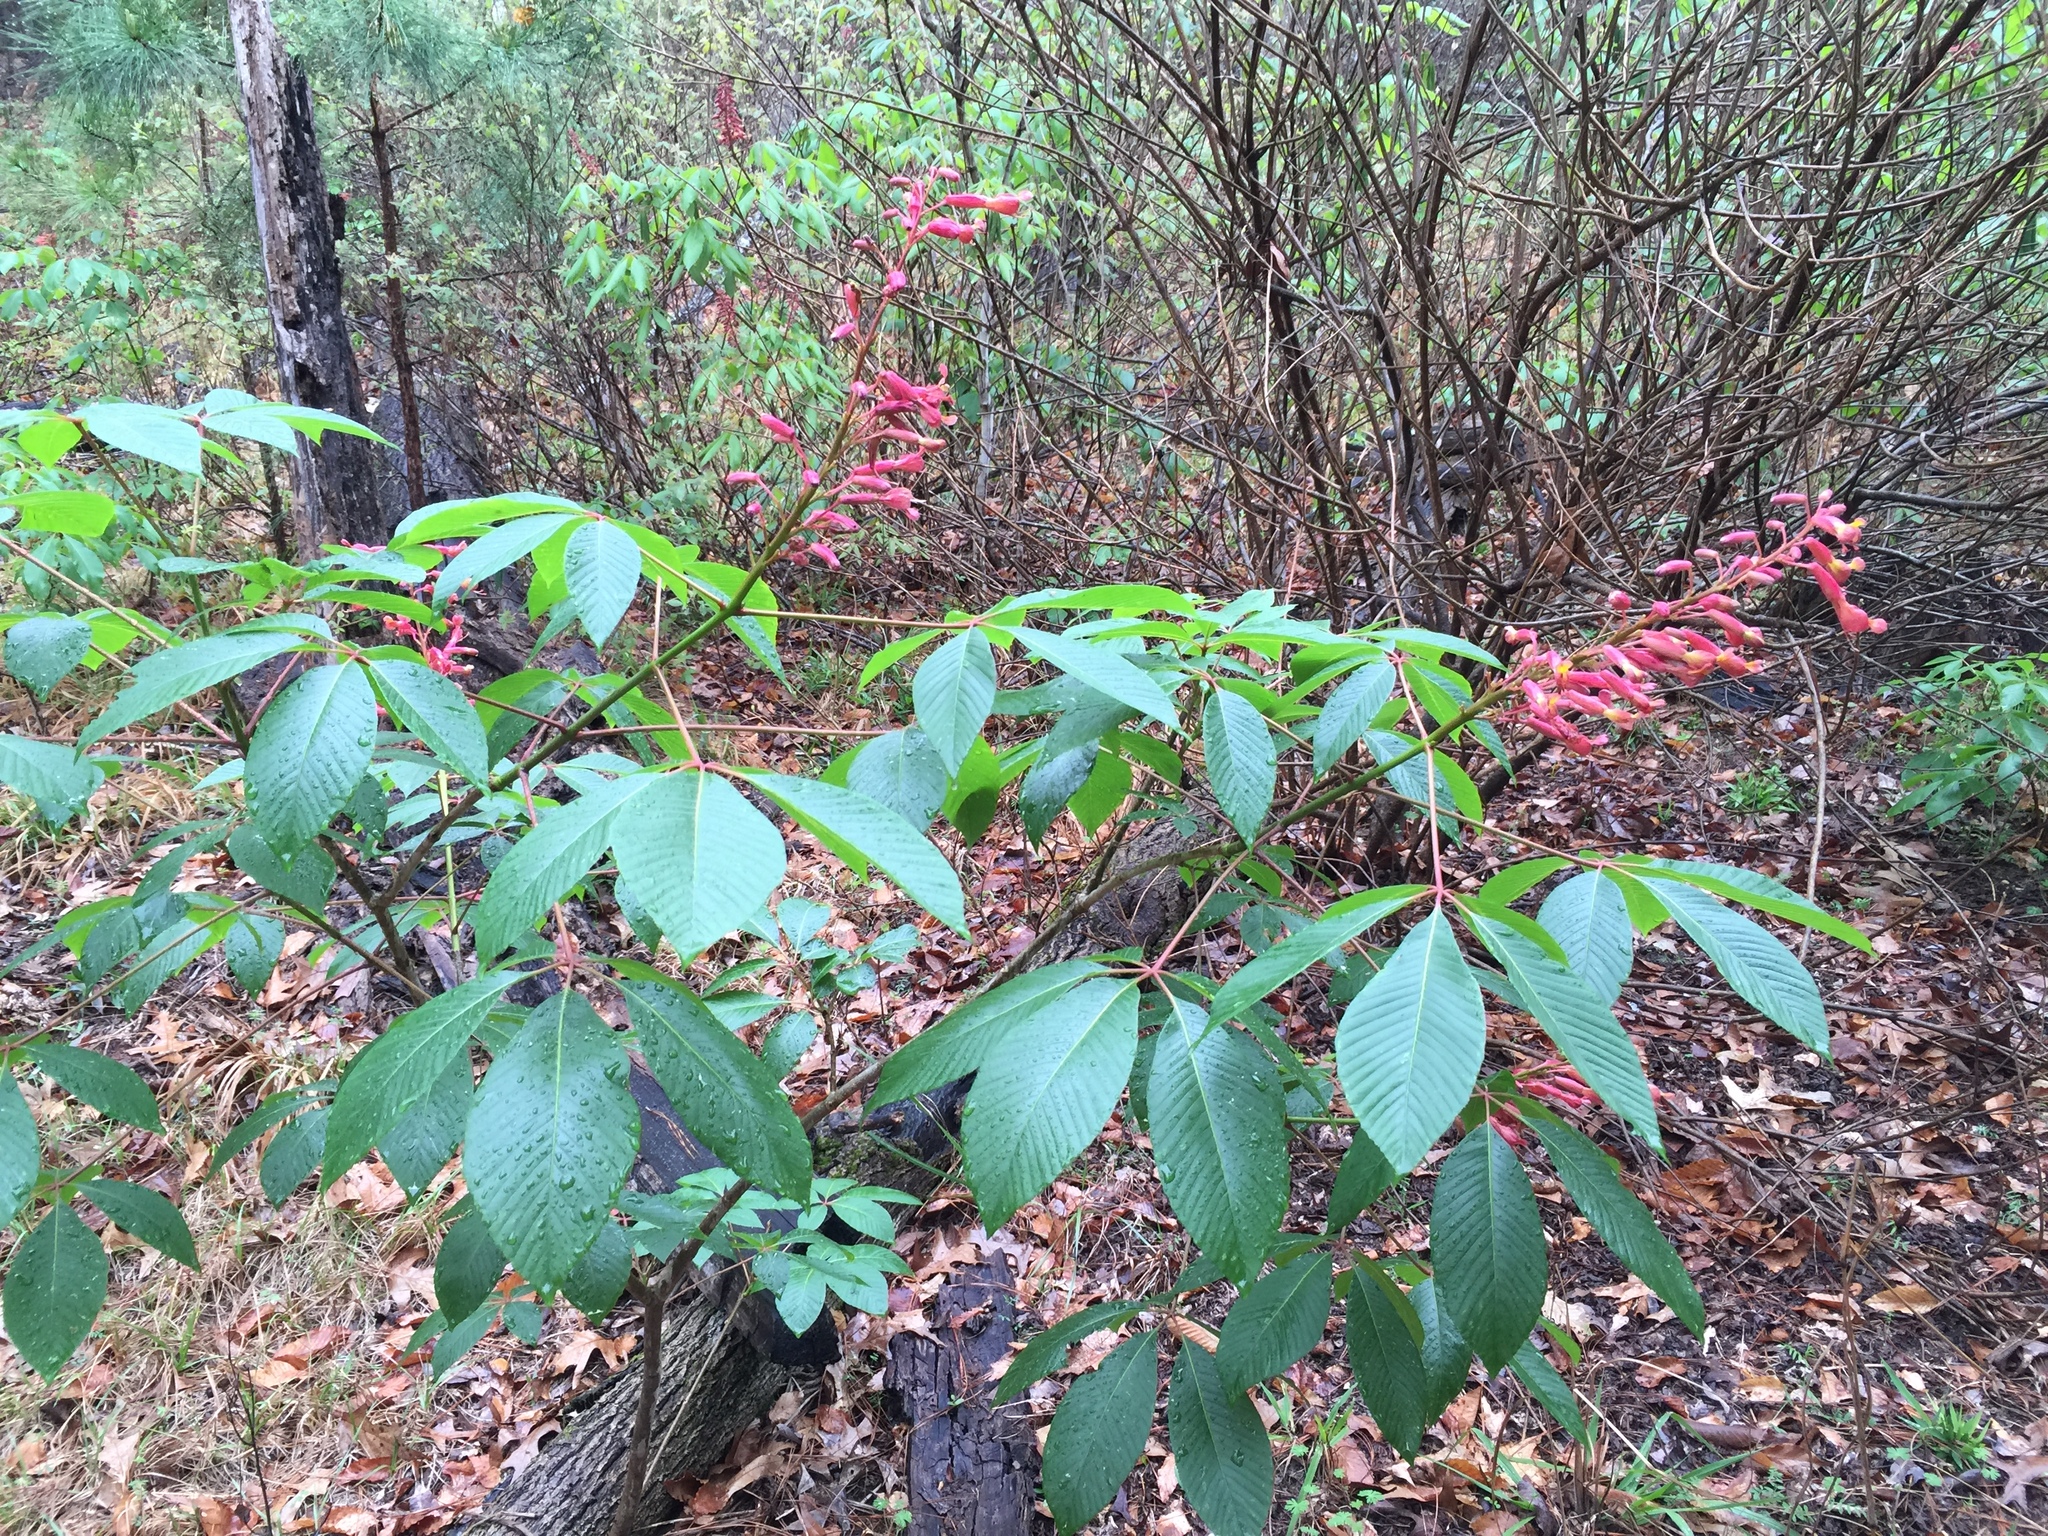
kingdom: Plantae
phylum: Tracheophyta
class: Magnoliopsida
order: Sapindales
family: Sapindaceae
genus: Aesculus
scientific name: Aesculus pavia
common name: Red buckeye
